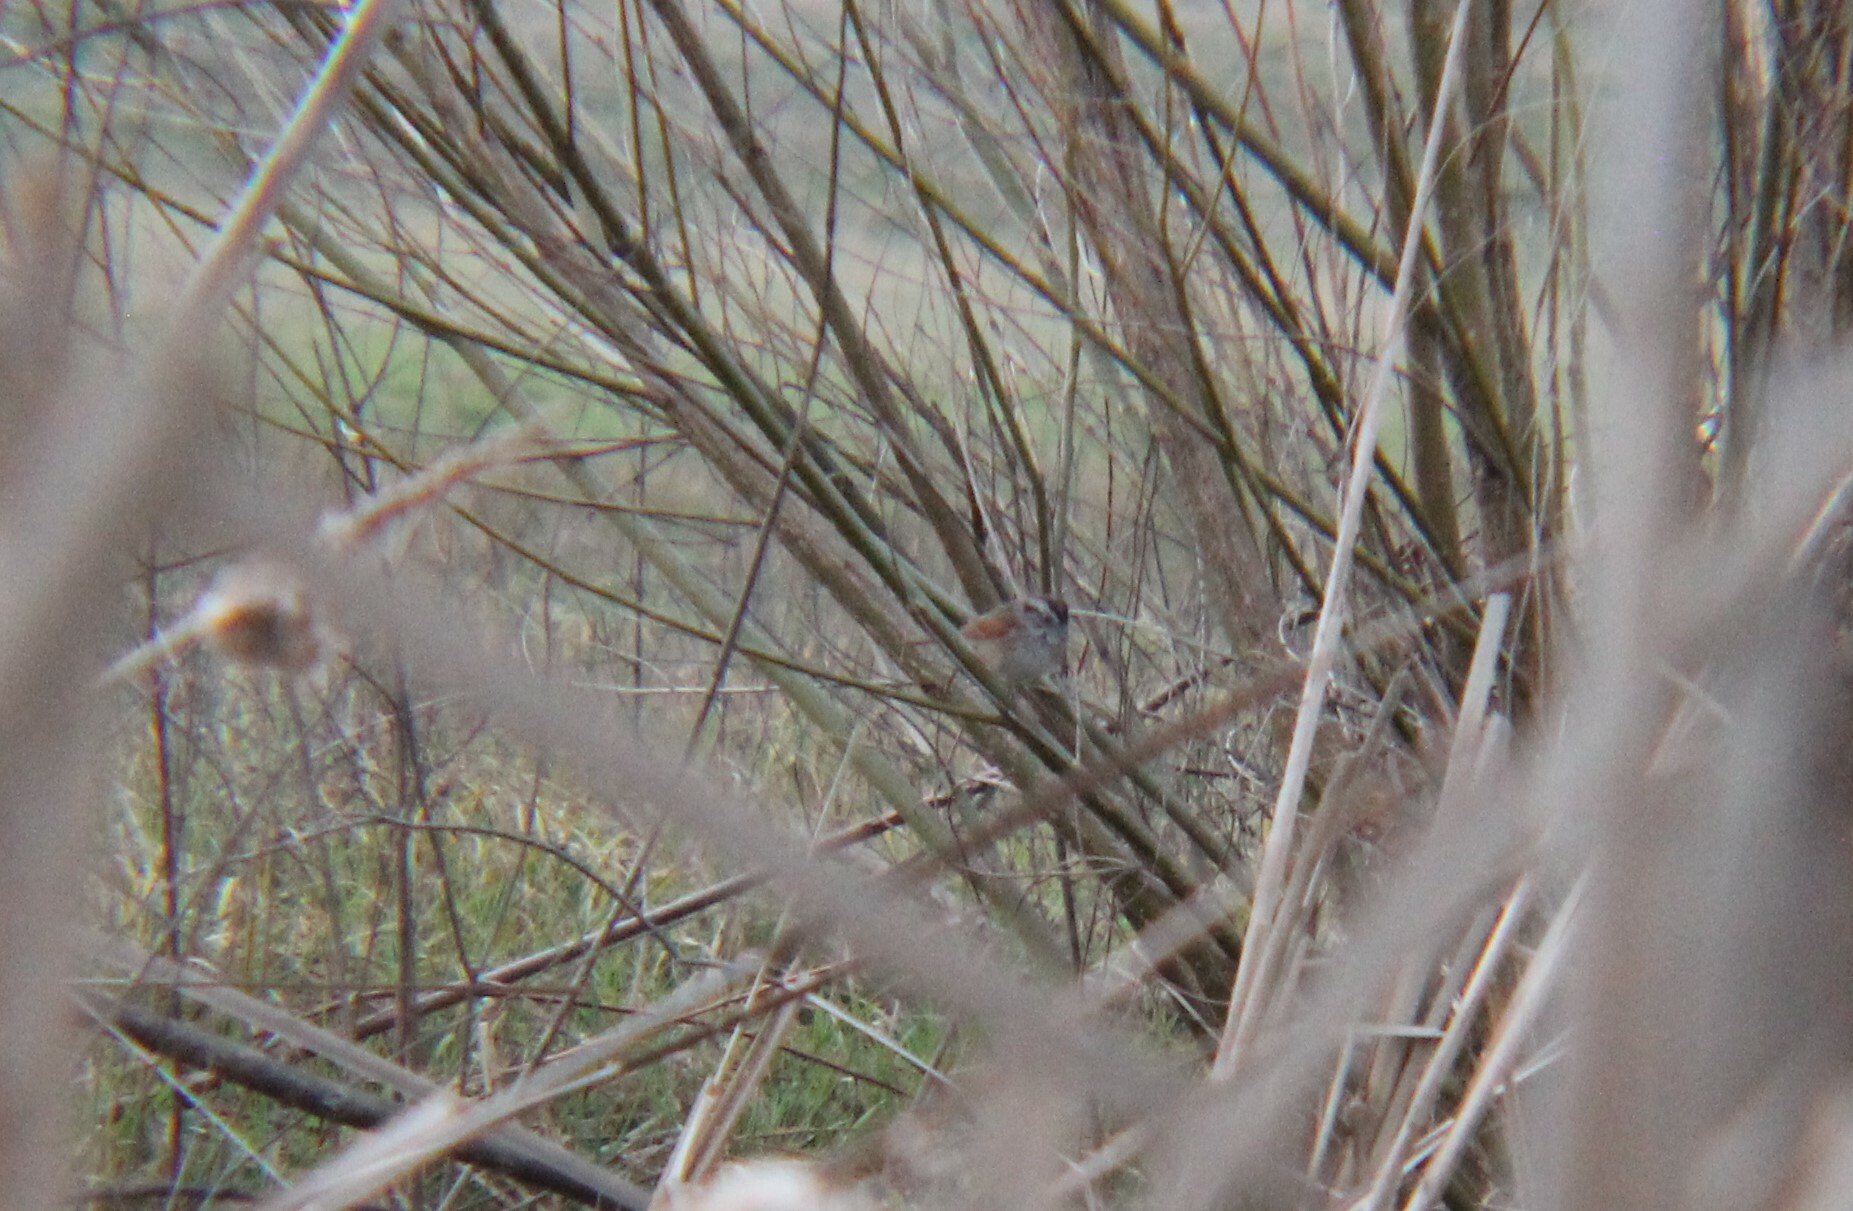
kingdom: Animalia
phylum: Chordata
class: Aves
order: Passeriformes
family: Passerellidae
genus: Melospiza
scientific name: Melospiza georgiana
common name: Swamp sparrow
